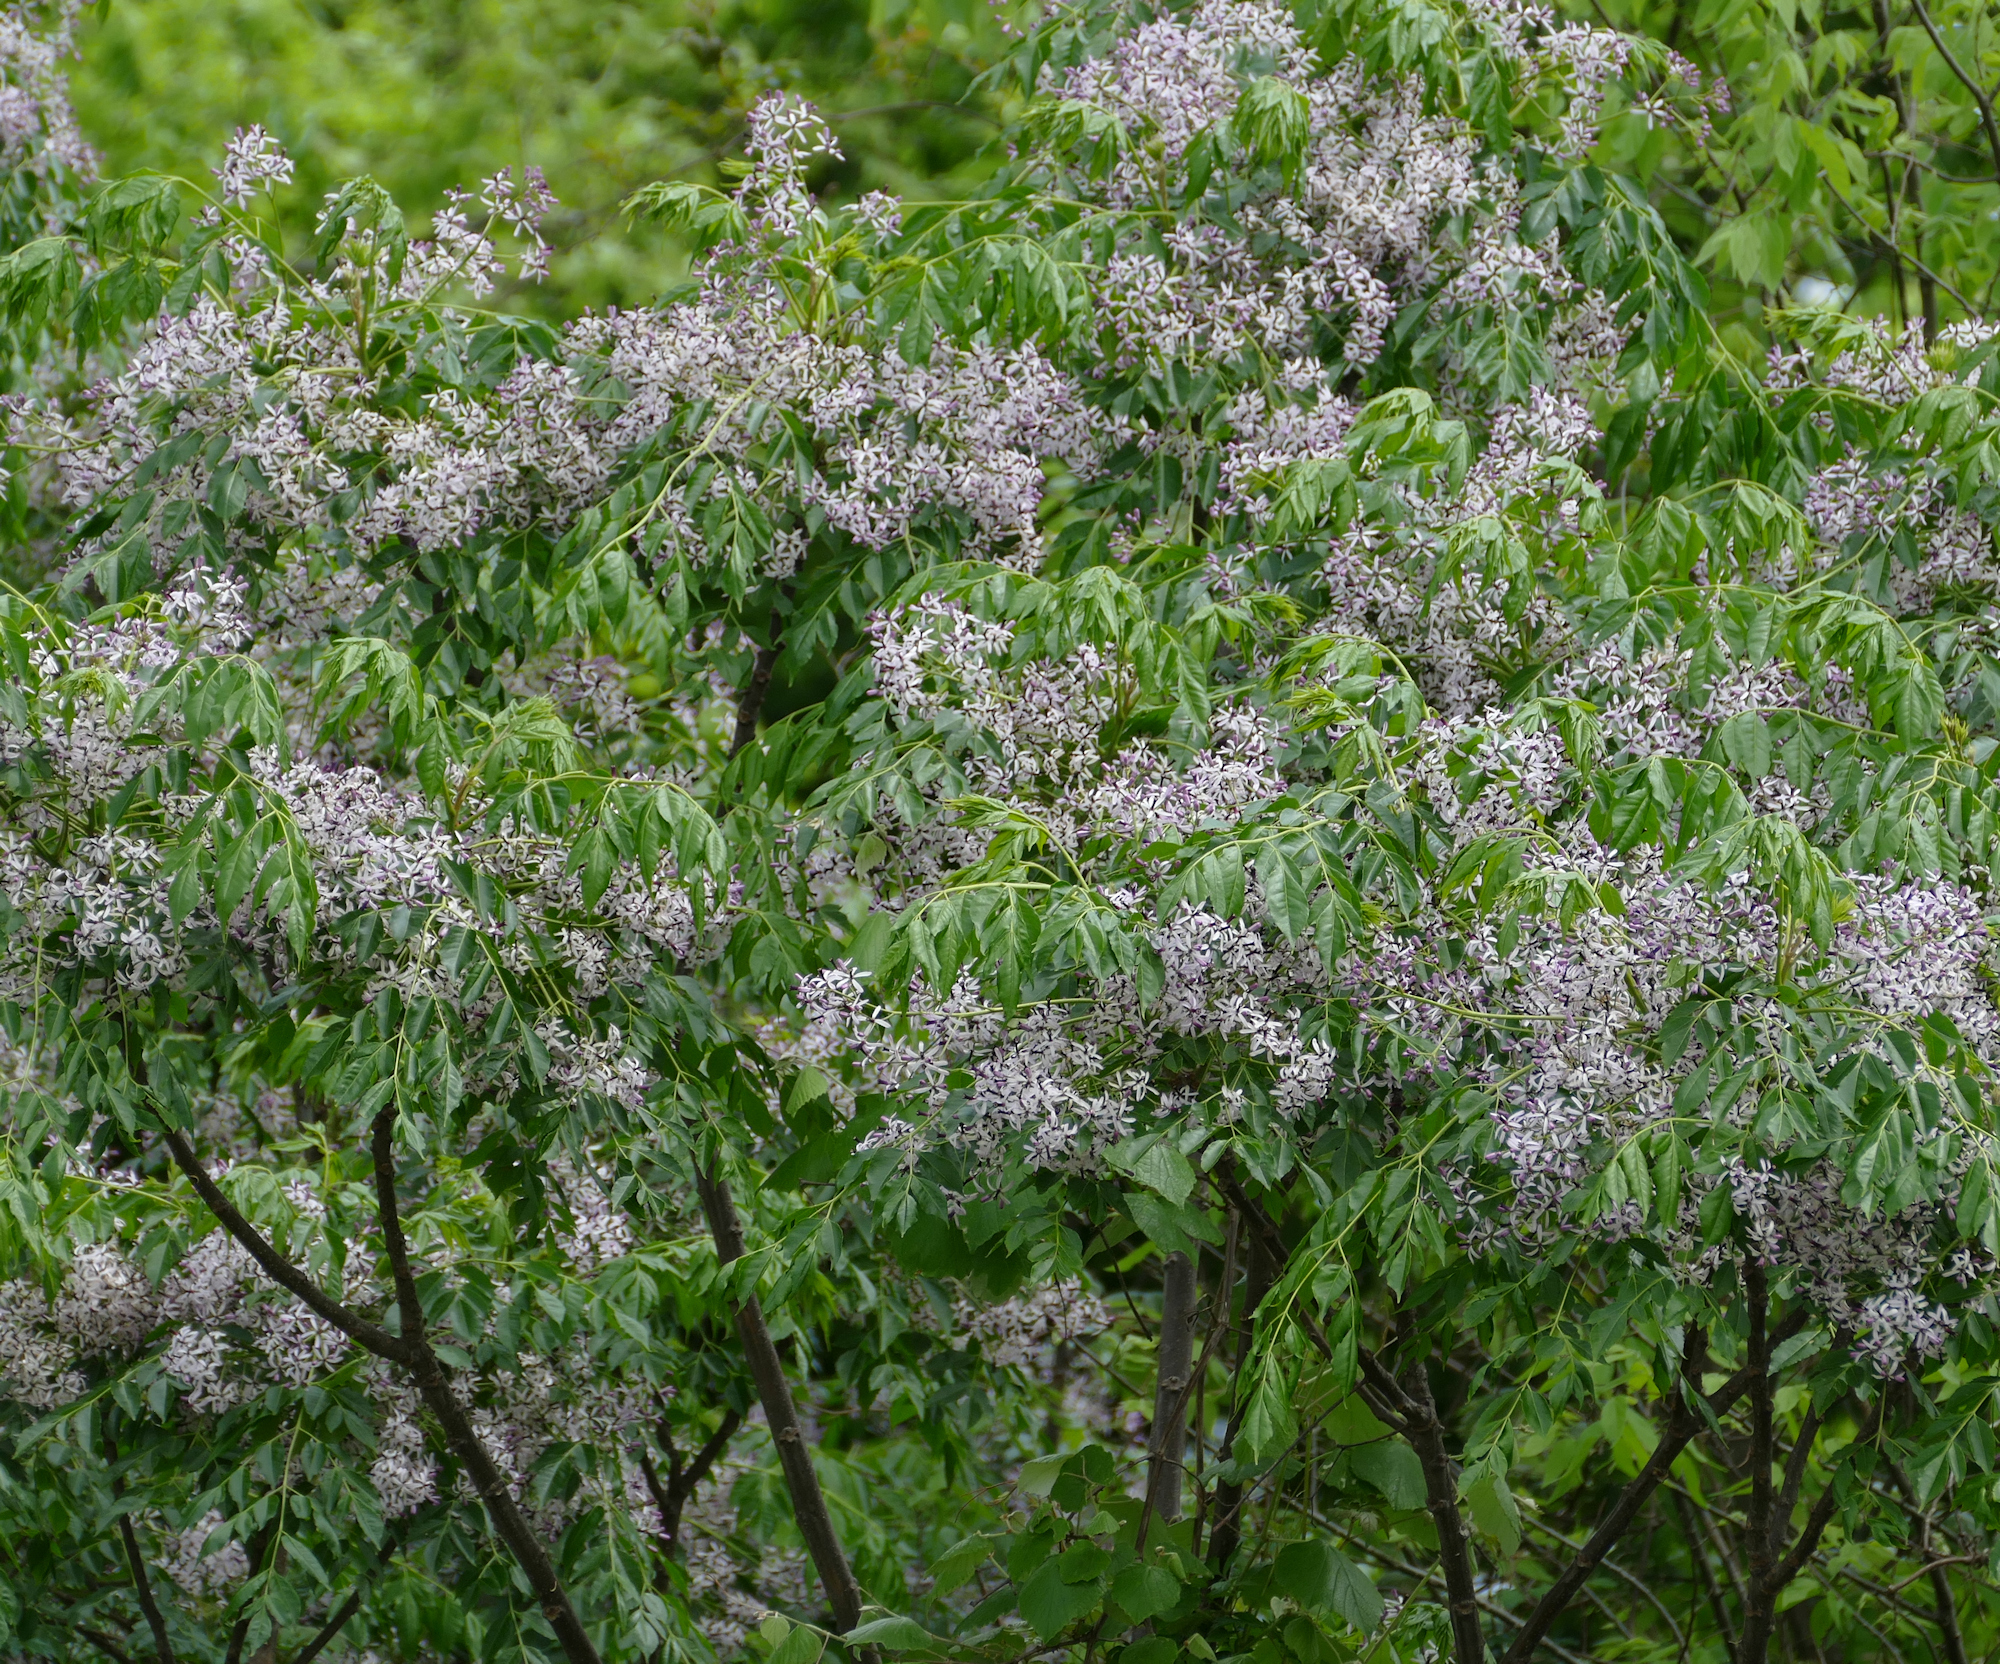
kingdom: Plantae
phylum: Tracheophyta
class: Magnoliopsida
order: Sapindales
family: Meliaceae
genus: Melia
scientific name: Melia azedarach
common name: Chinaberrytree
